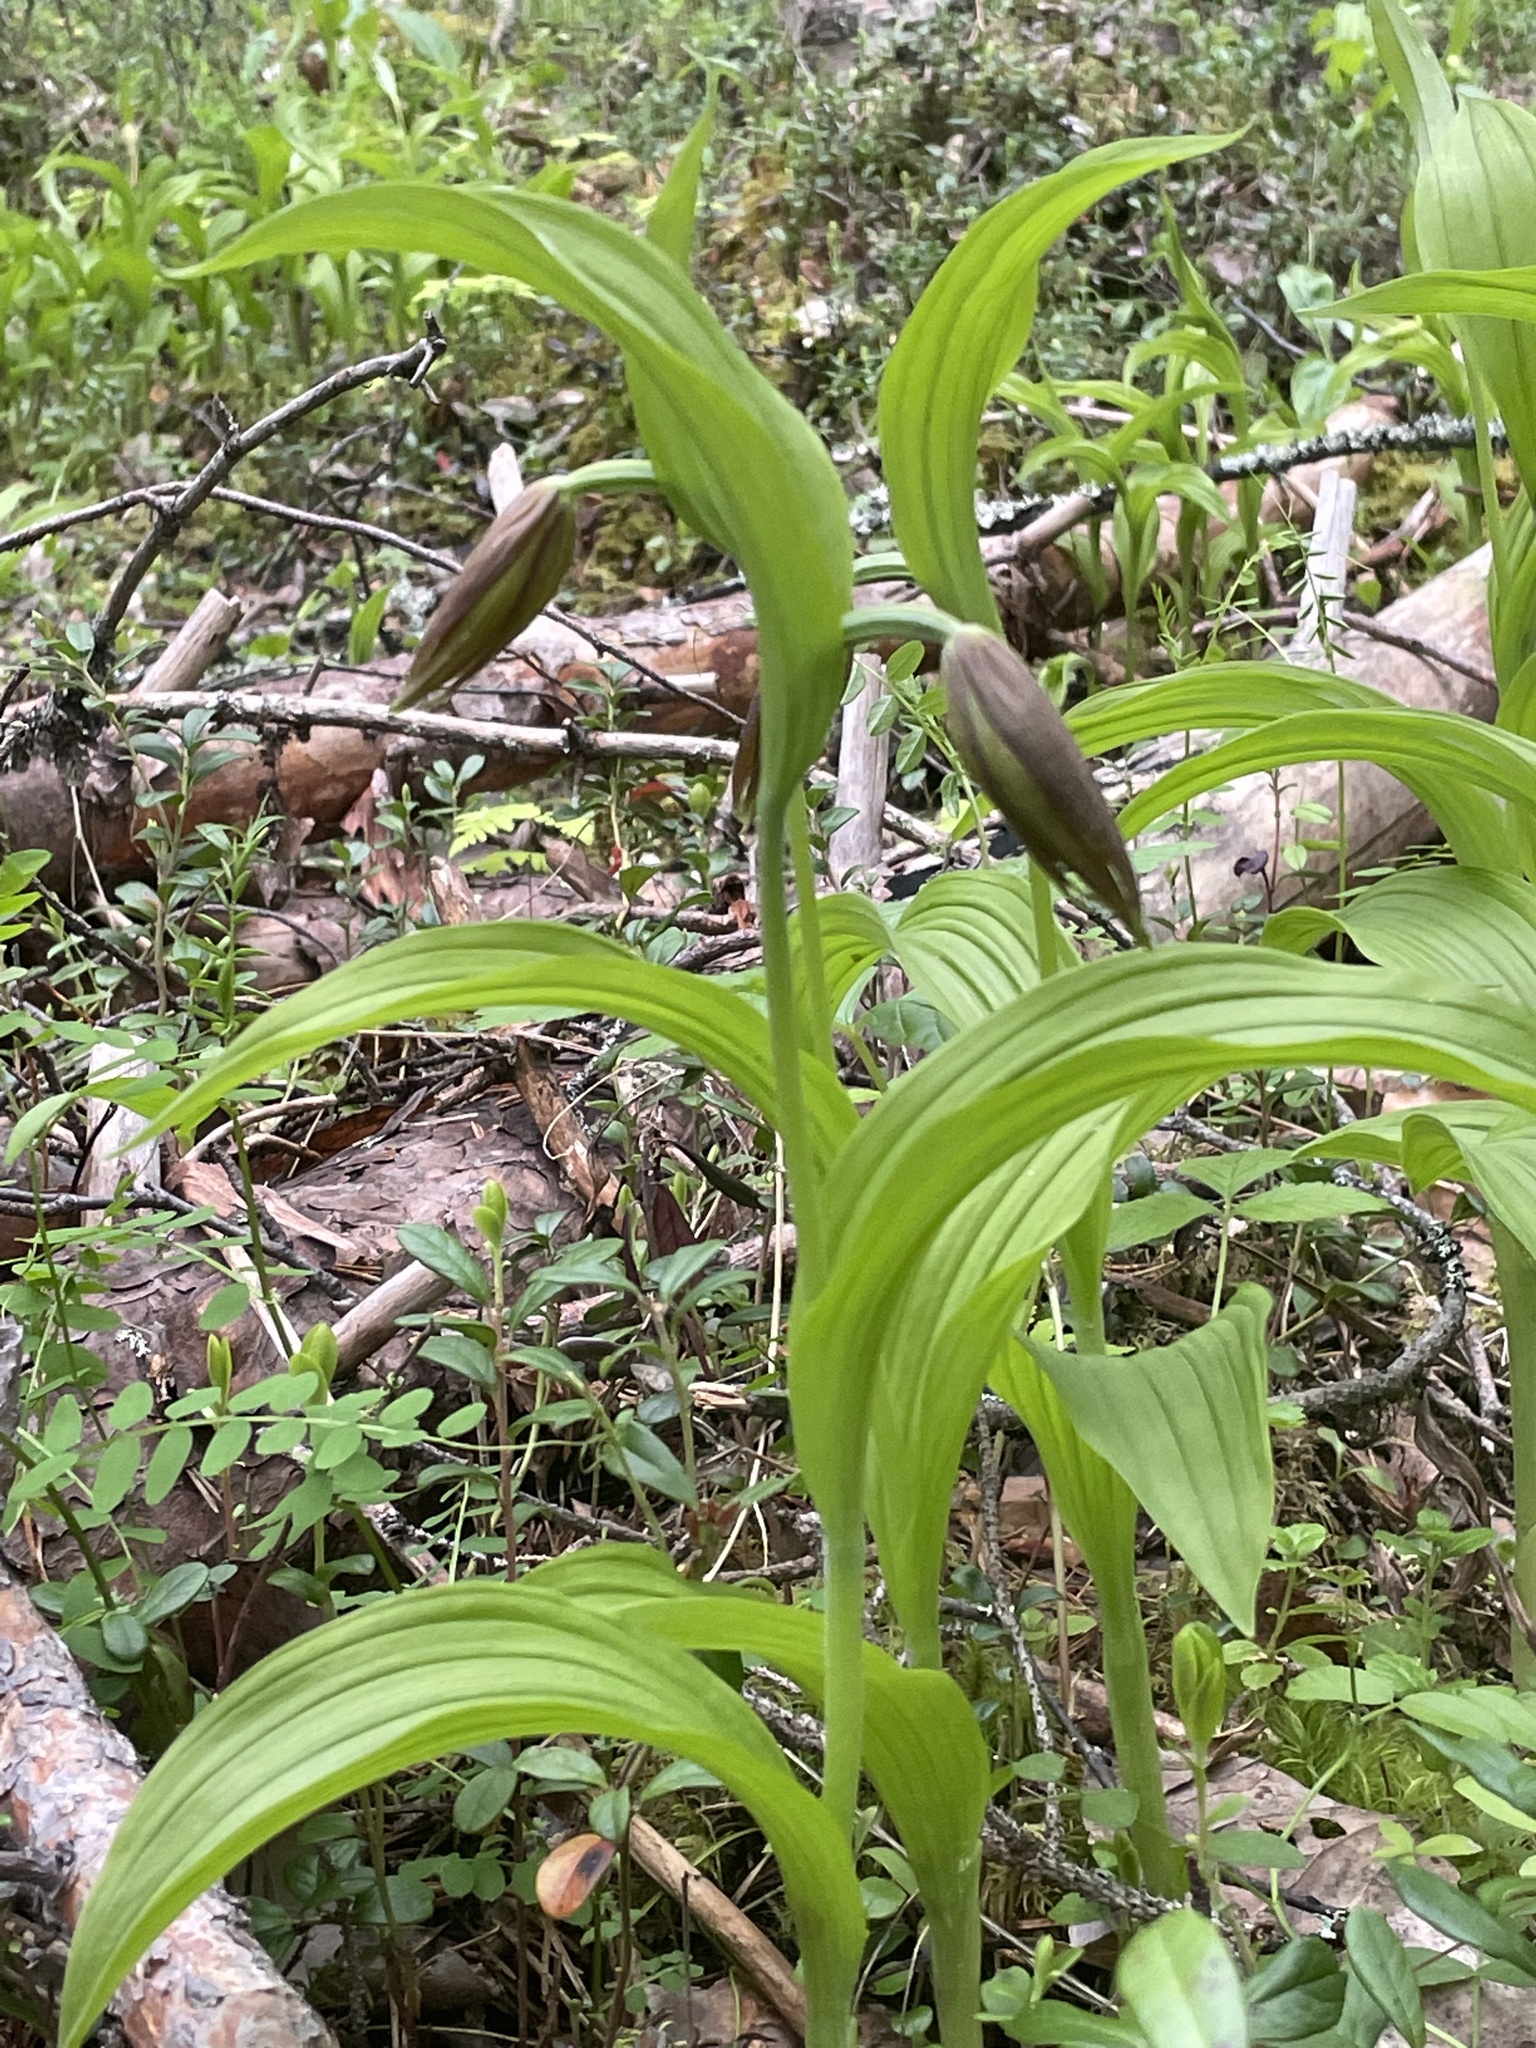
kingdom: Plantae
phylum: Tracheophyta
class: Liliopsida
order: Asparagales
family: Orchidaceae
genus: Cypripedium
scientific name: Cypripedium calceolus
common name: Lady's-slipper
